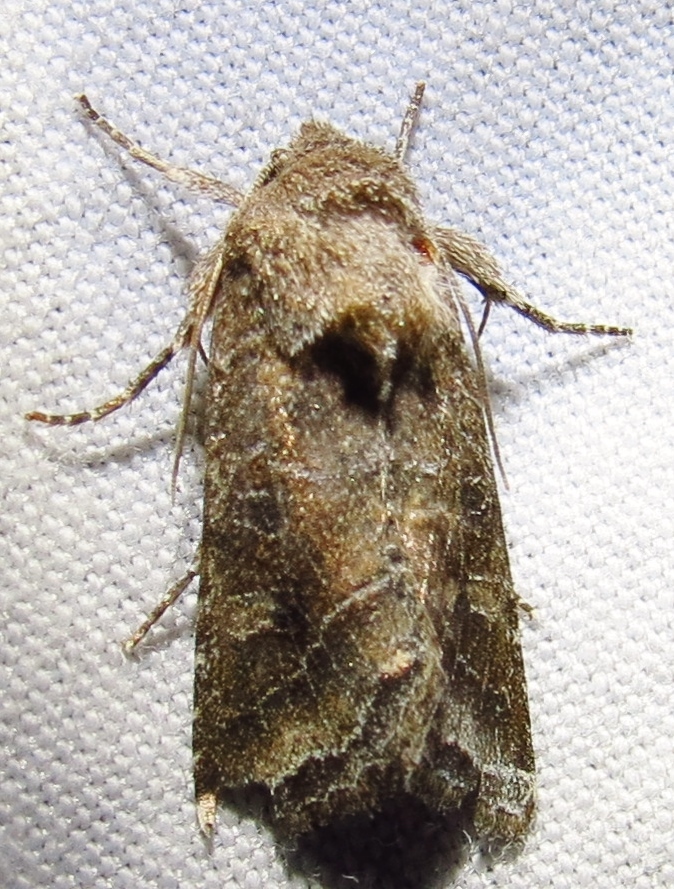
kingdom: Animalia
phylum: Arthropoda
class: Insecta
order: Lepidoptera
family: Noctuidae
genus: Lacinipolia
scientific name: Lacinipolia erecta
